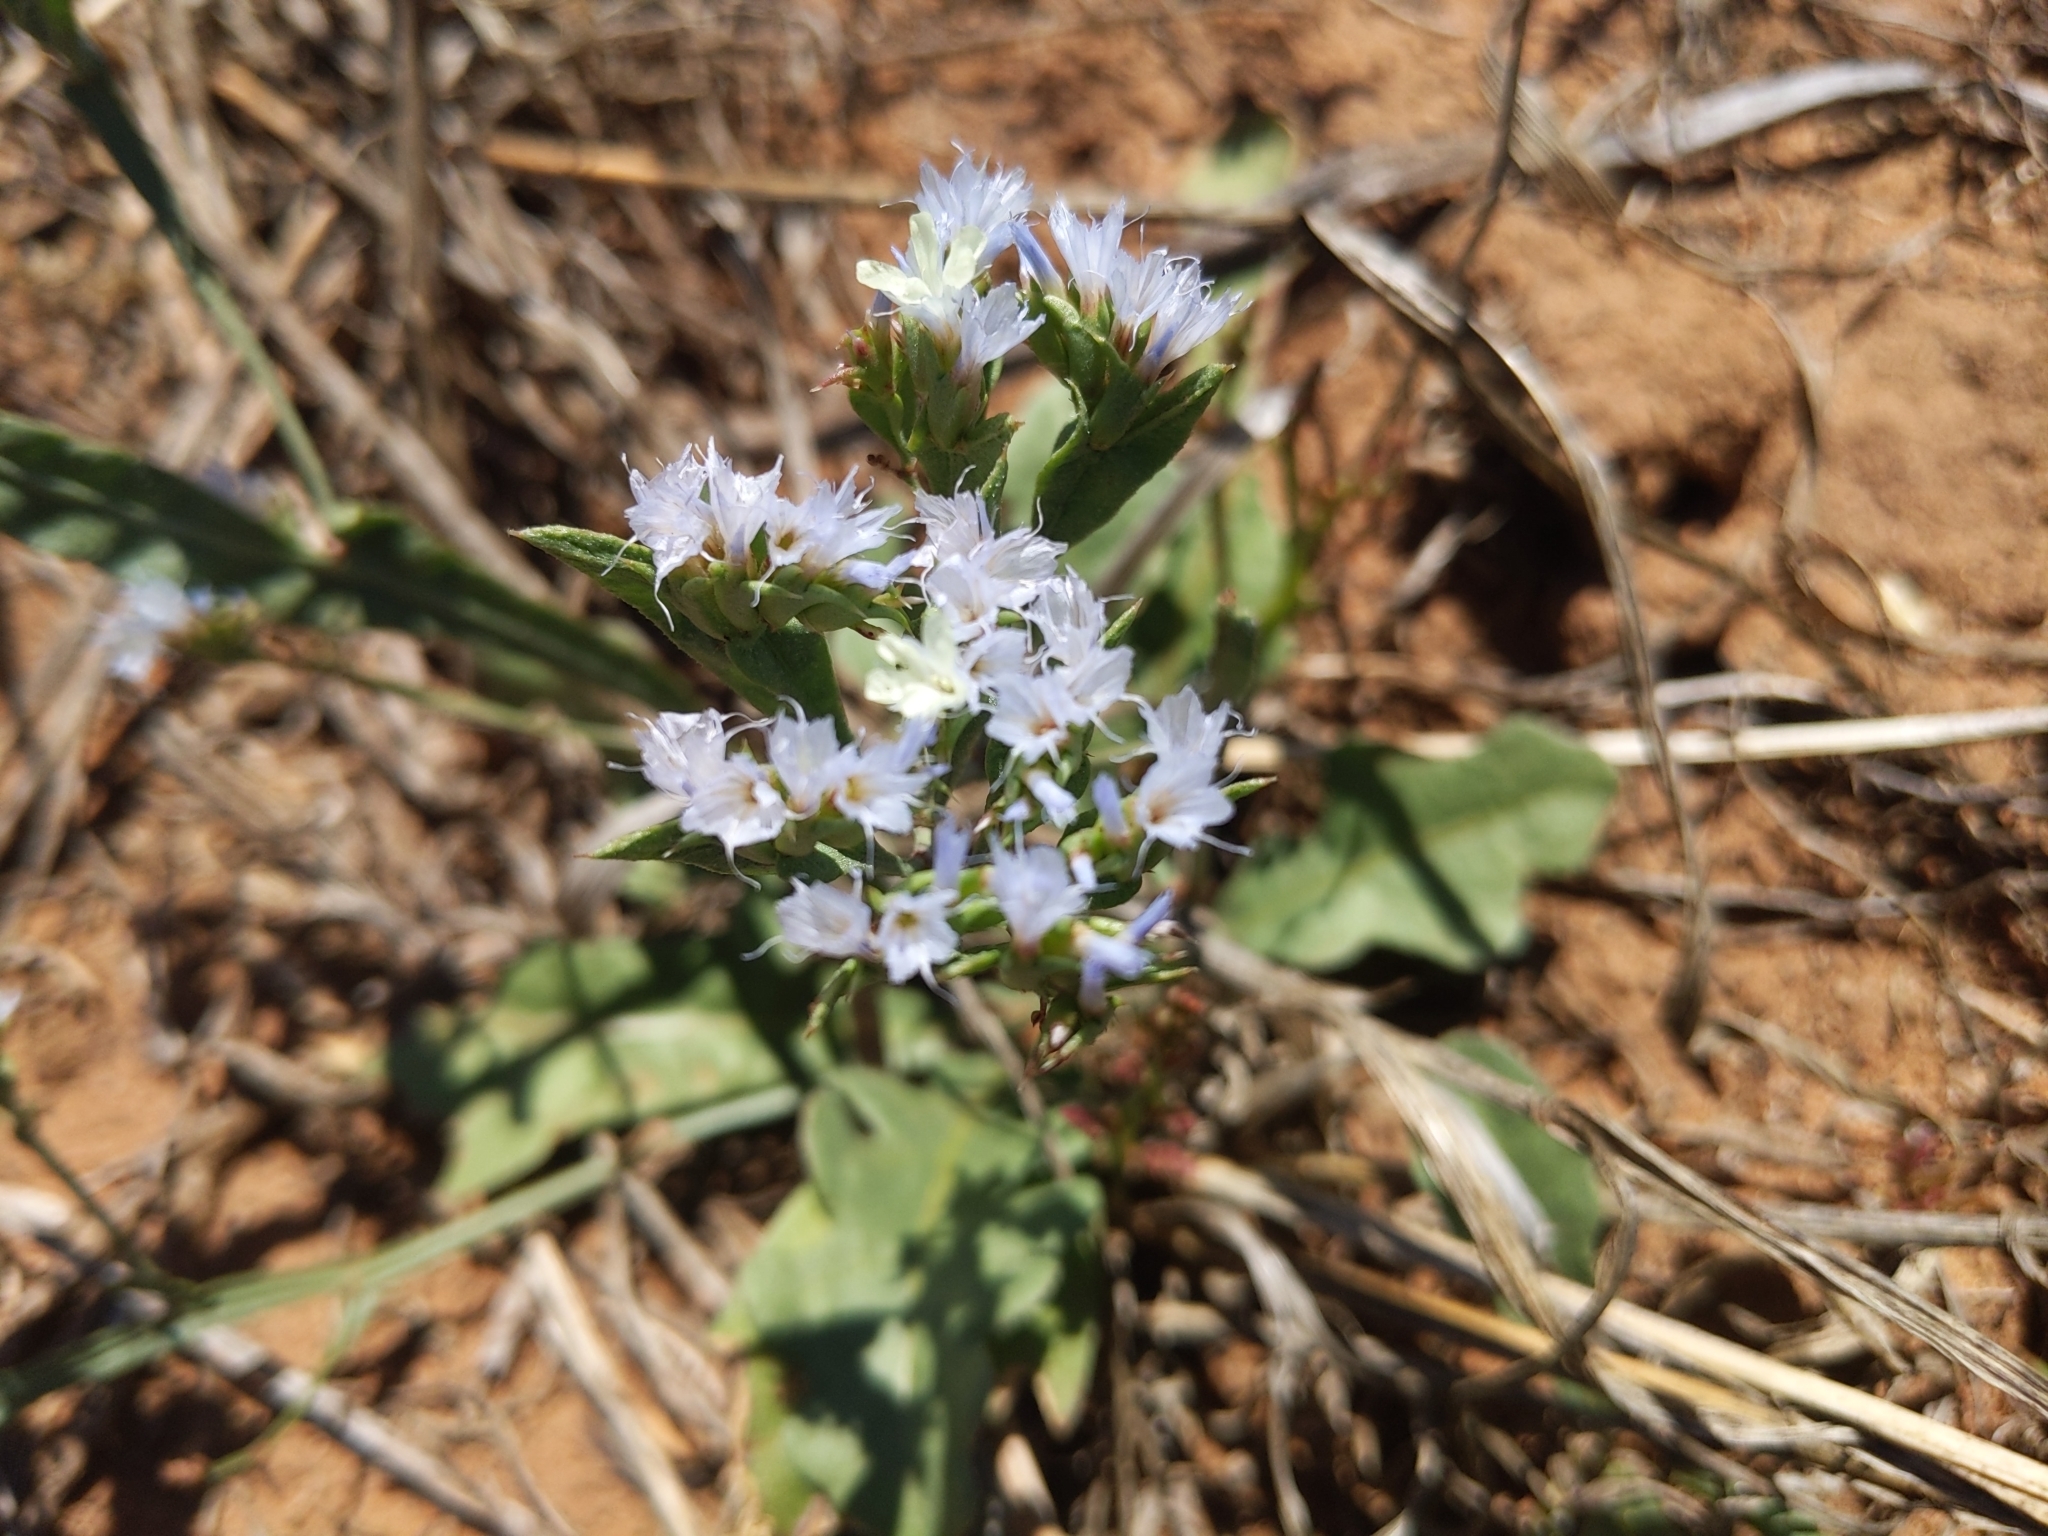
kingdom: Plantae
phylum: Tracheophyta
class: Magnoliopsida
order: Caryophyllales
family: Plumbaginaceae
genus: Limonium
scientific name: Limonium lobatum
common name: Winged sea-lavender
